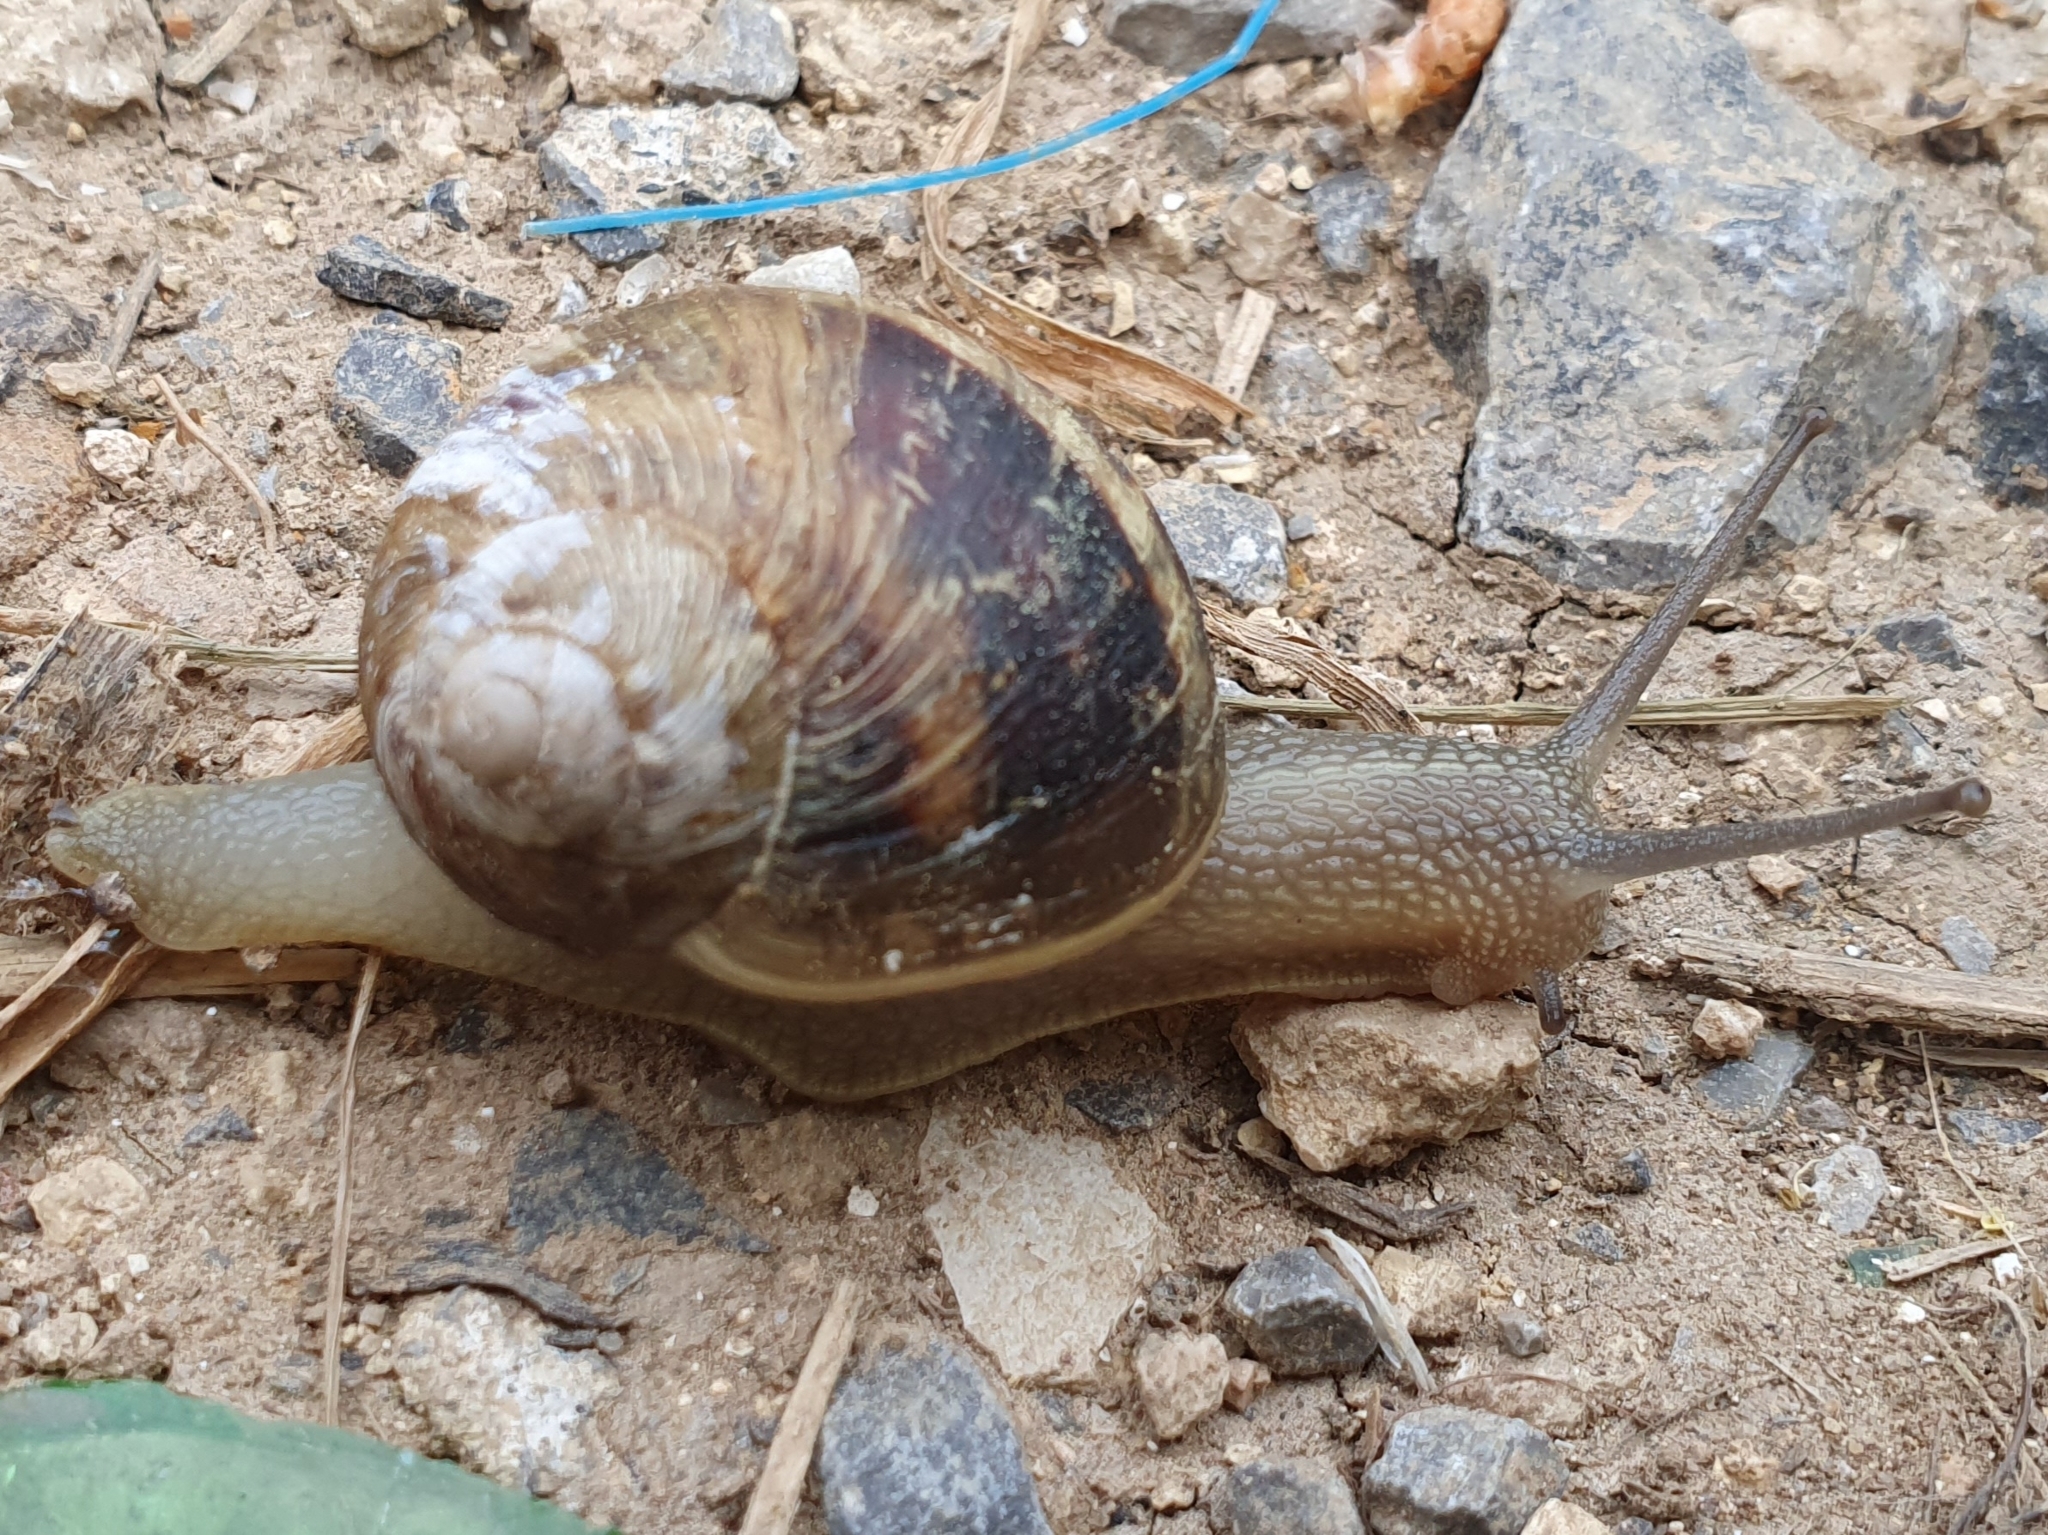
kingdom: Animalia
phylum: Mollusca
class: Gastropoda
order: Stylommatophora
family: Helicidae
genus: Cornu
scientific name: Cornu aspersum
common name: Brown garden snail
